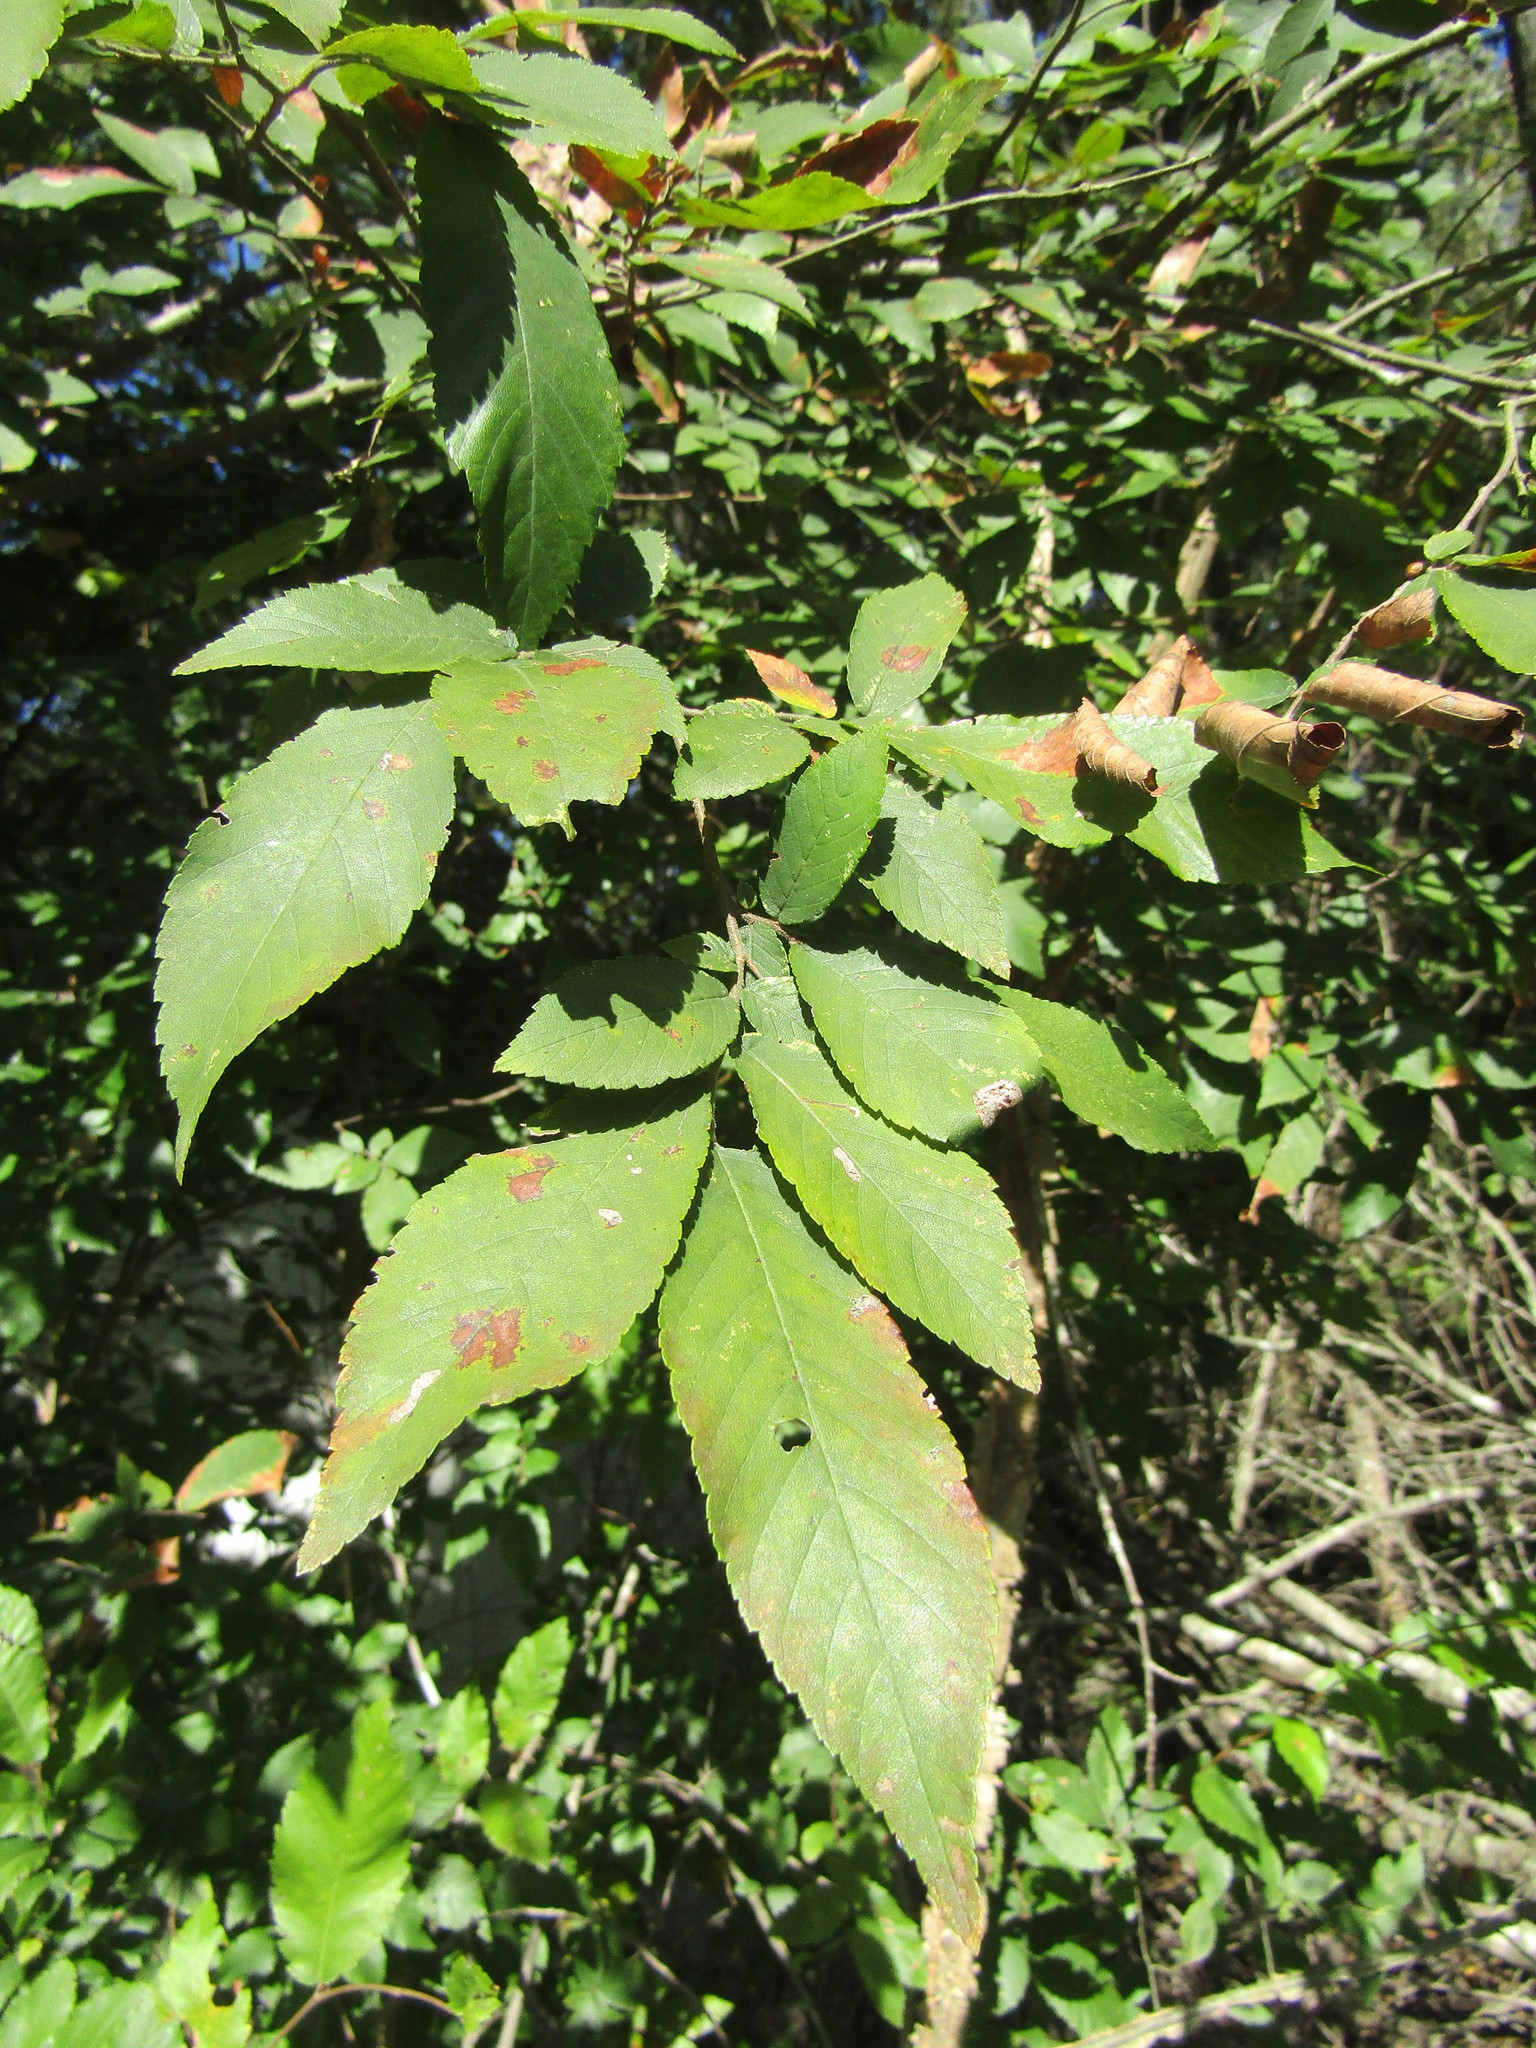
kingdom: Plantae
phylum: Tracheophyta
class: Magnoliopsida
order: Rosales
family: Ulmaceae
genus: Ulmus
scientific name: Ulmus alata
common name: Winged elm
